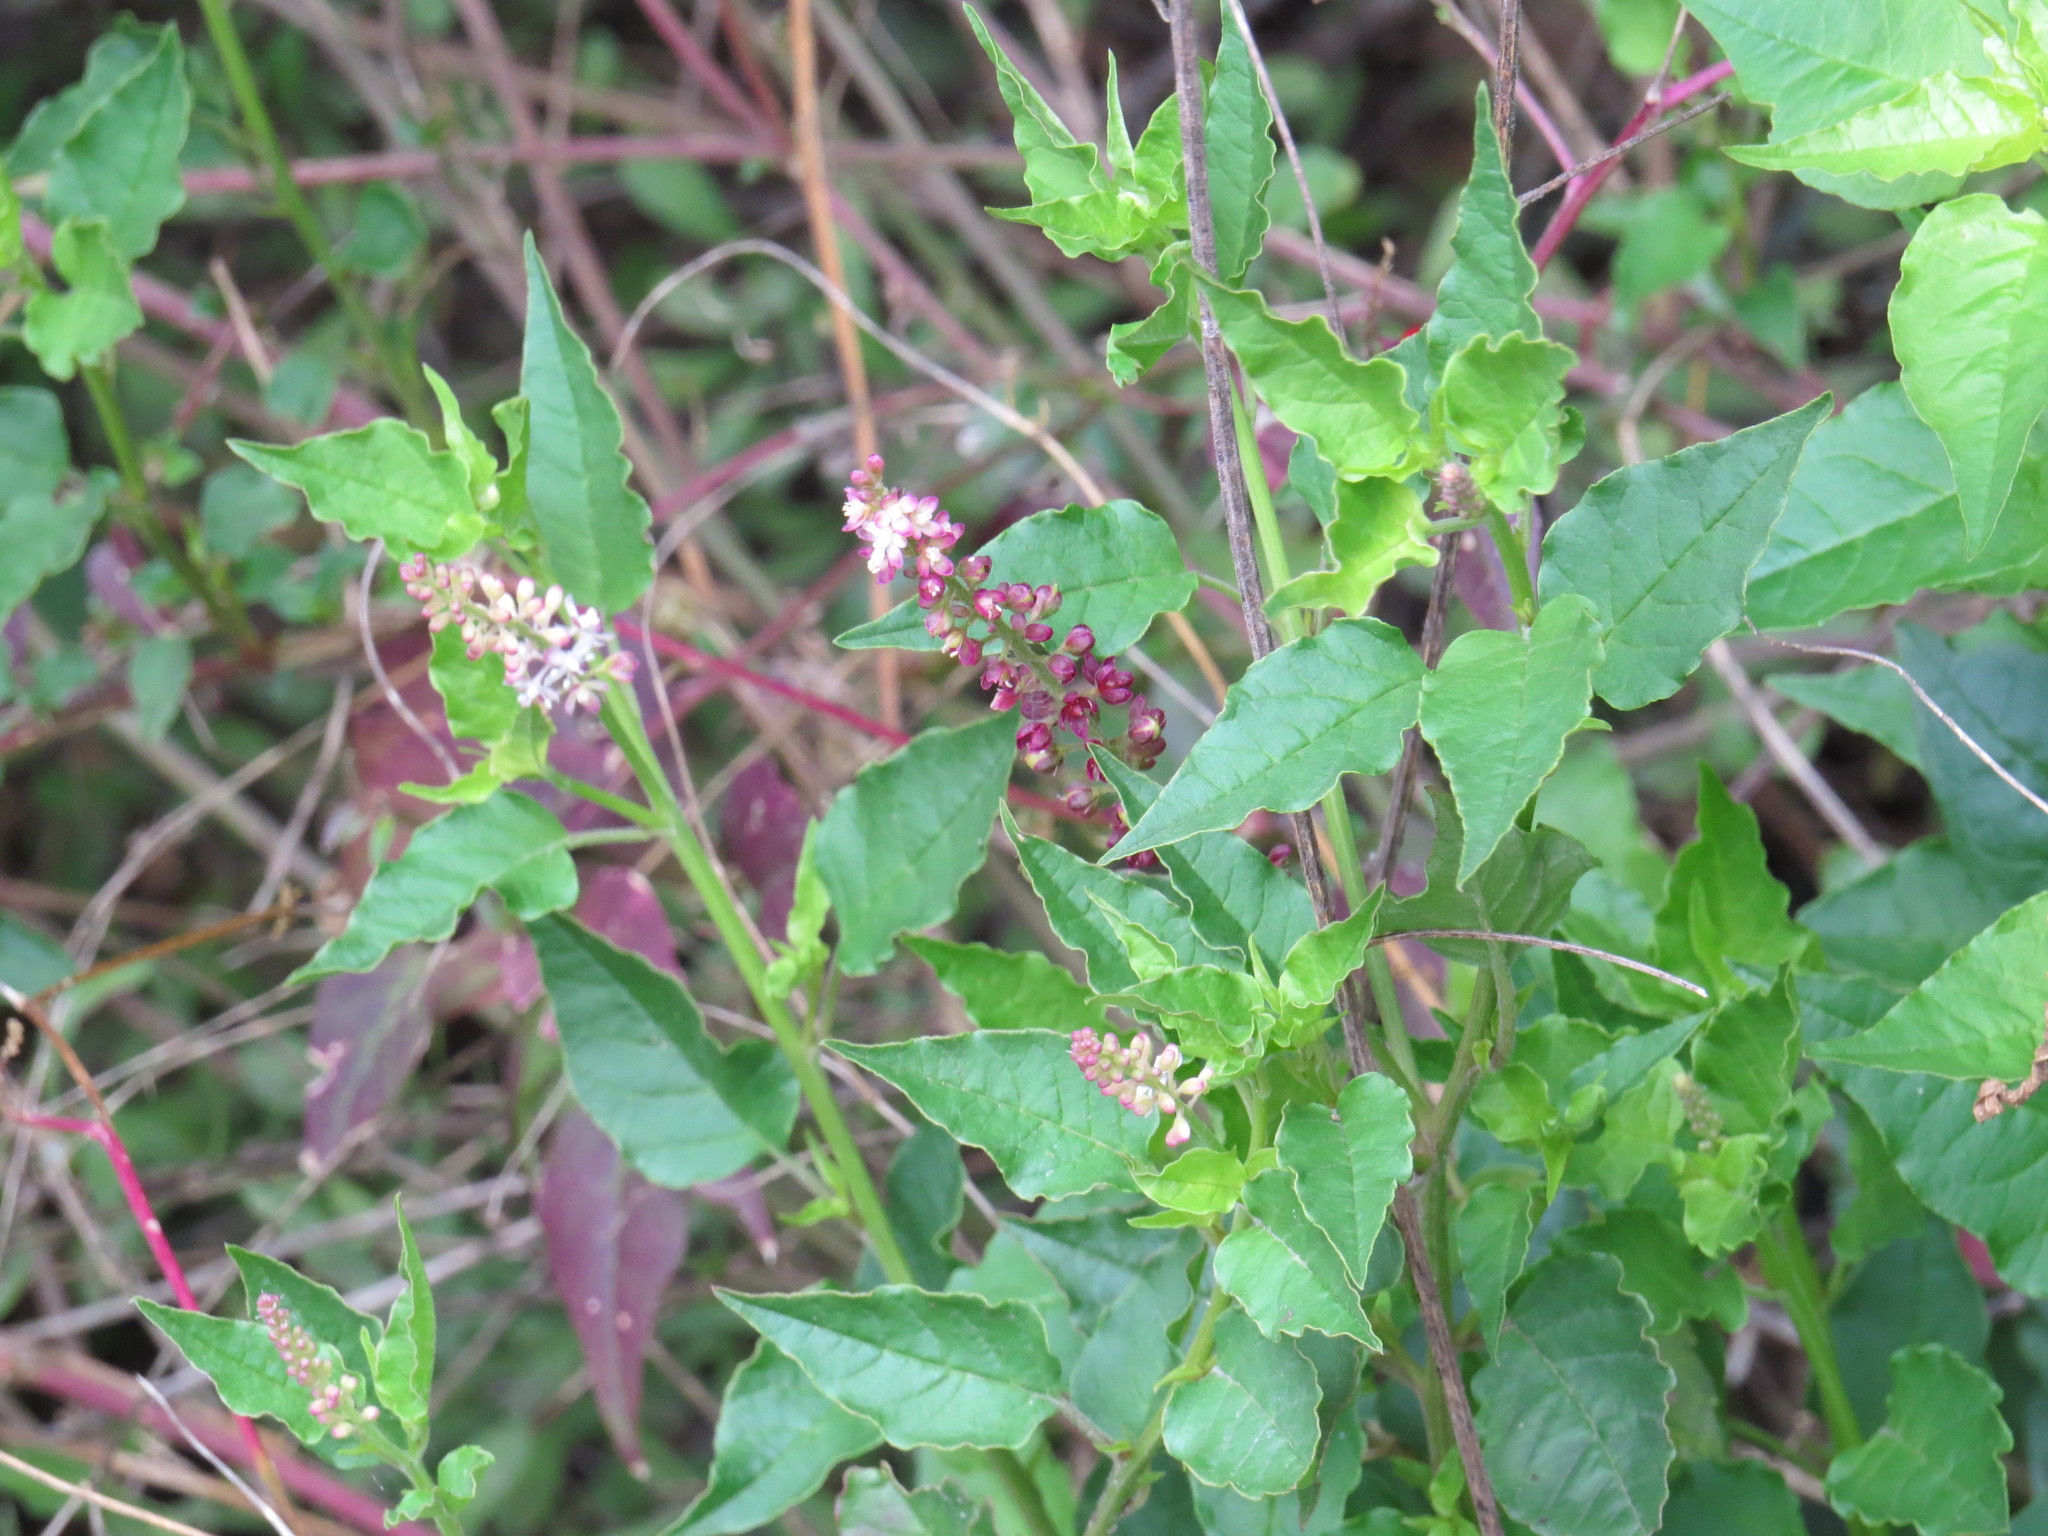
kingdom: Plantae
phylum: Tracheophyta
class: Magnoliopsida
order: Caryophyllales
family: Phytolaccaceae
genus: Rivina
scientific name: Rivina humilis
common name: Rougeplant
